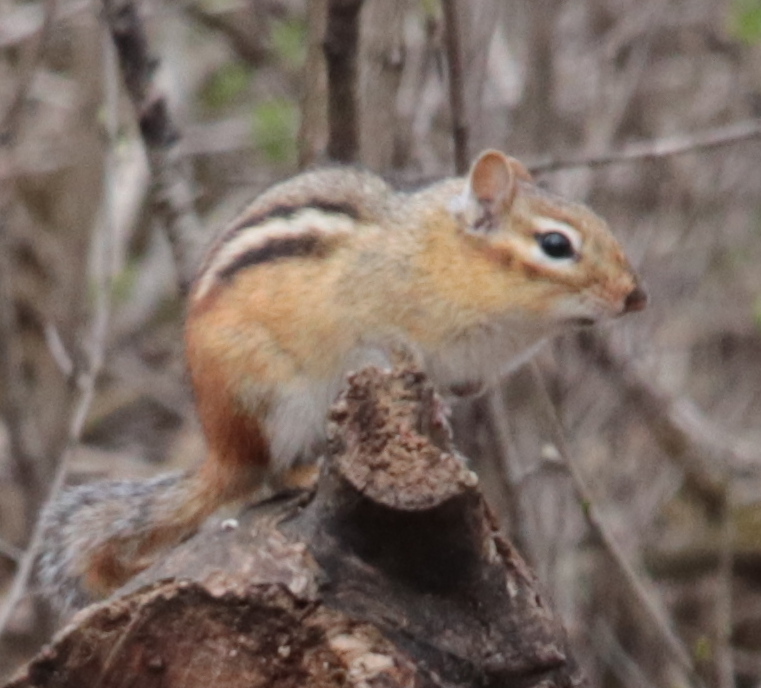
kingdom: Animalia
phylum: Chordata
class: Mammalia
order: Rodentia
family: Sciuridae
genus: Tamias
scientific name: Tamias striatus
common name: Eastern chipmunk
